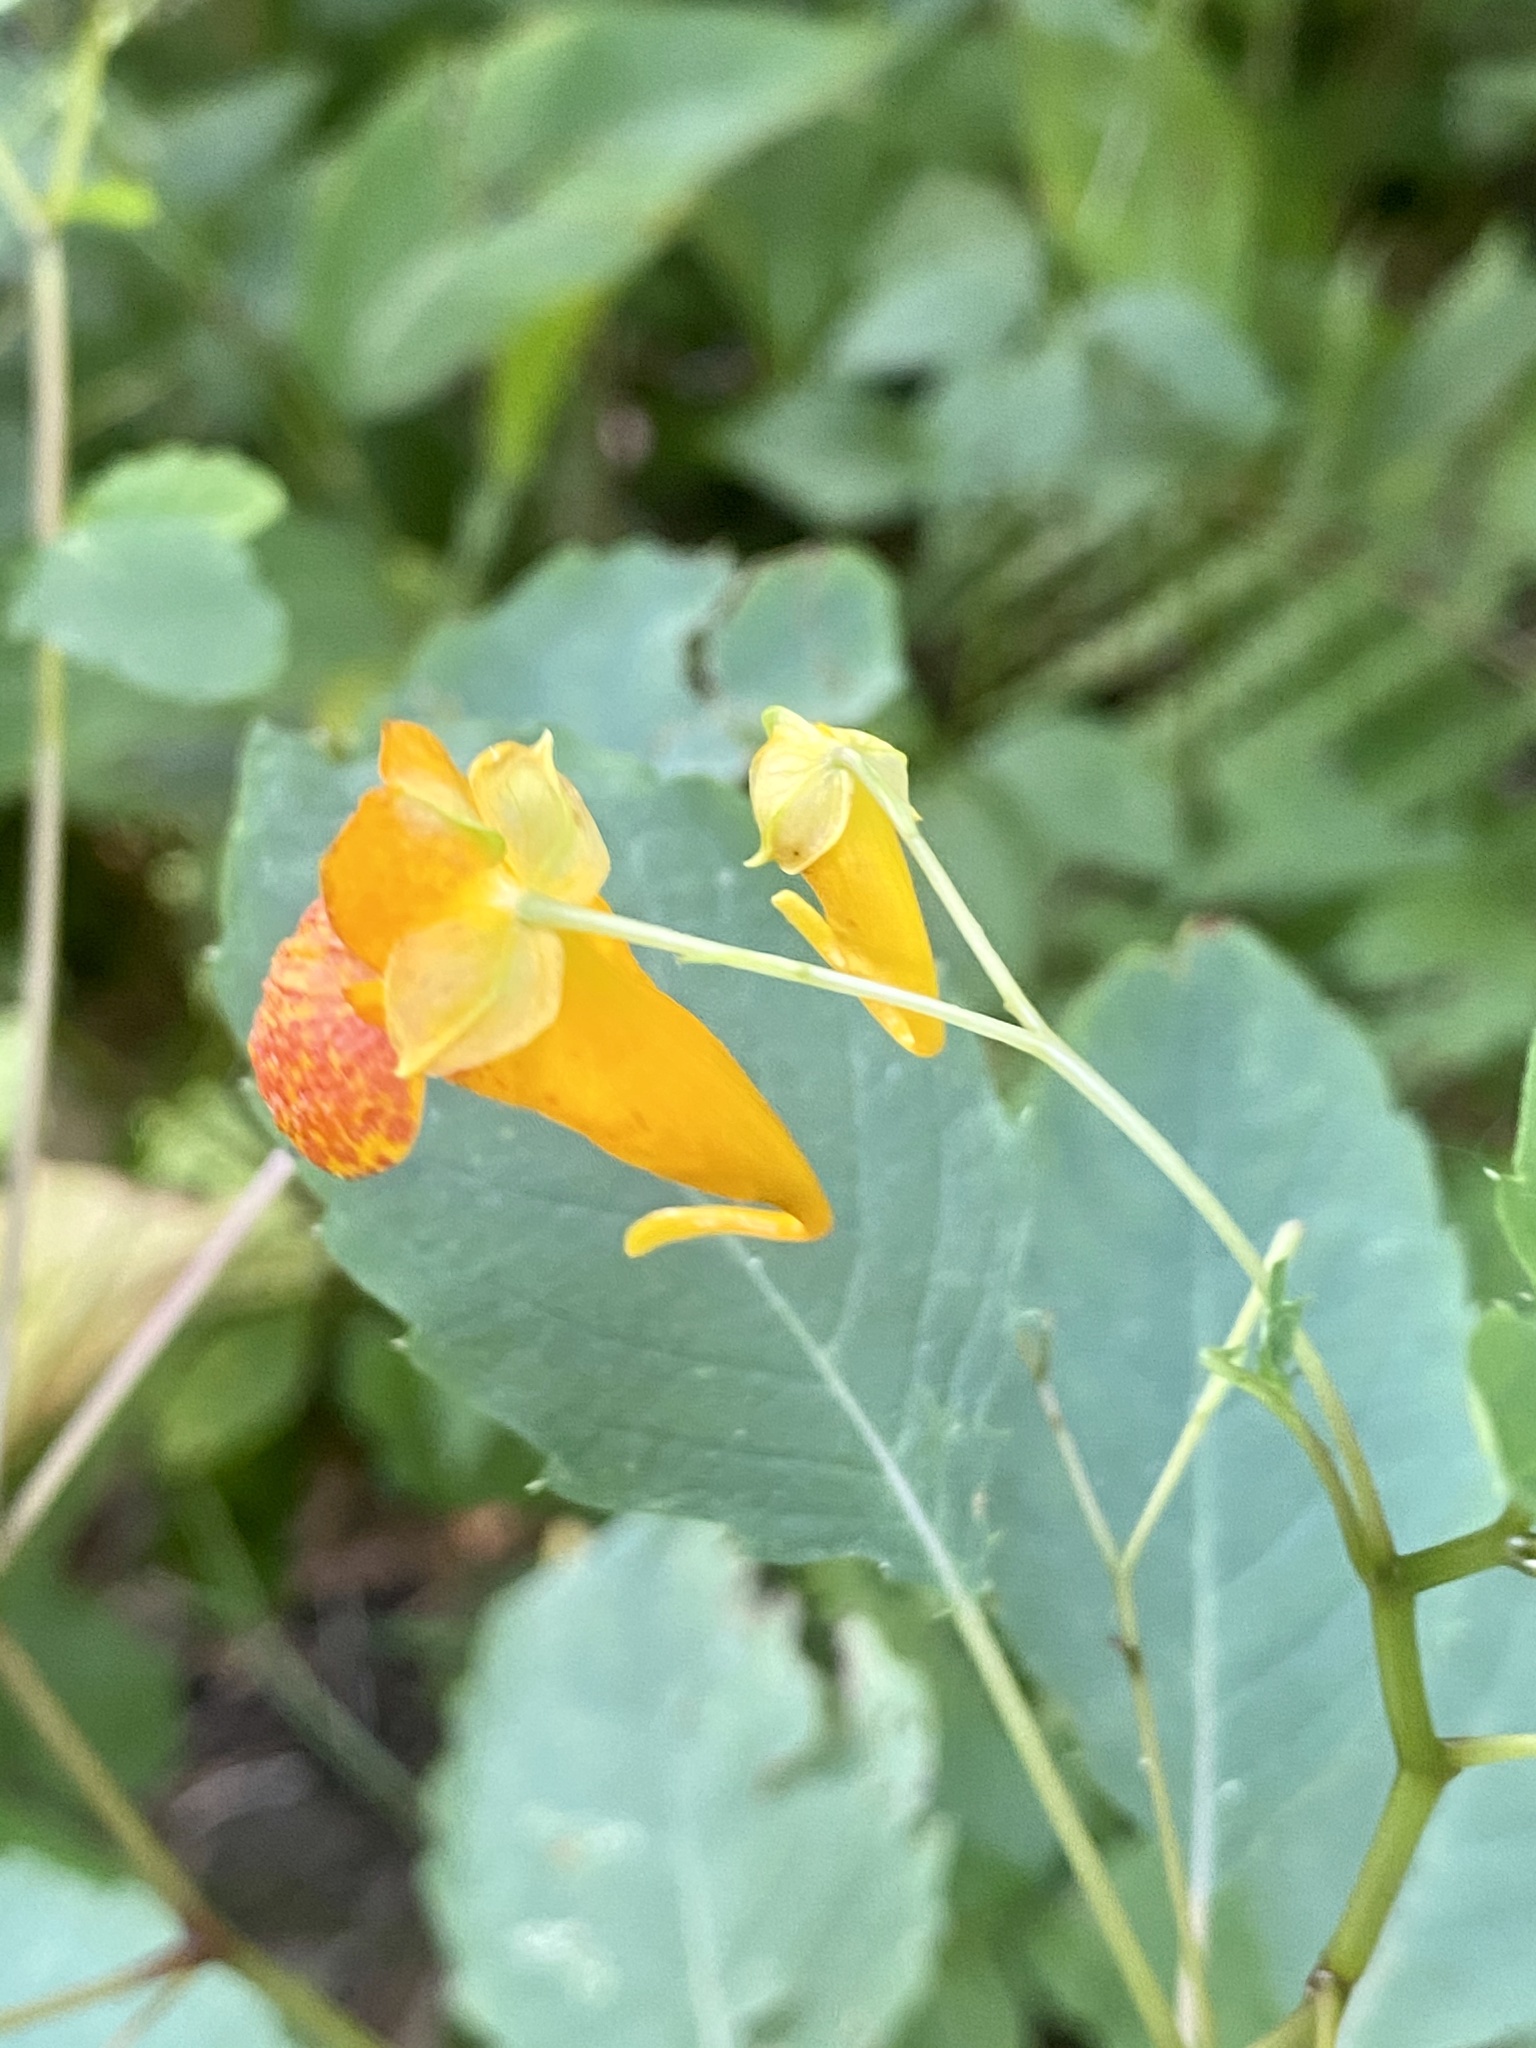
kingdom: Plantae
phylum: Tracheophyta
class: Magnoliopsida
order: Ericales
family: Balsaminaceae
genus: Impatiens
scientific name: Impatiens capensis
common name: Orange balsam
